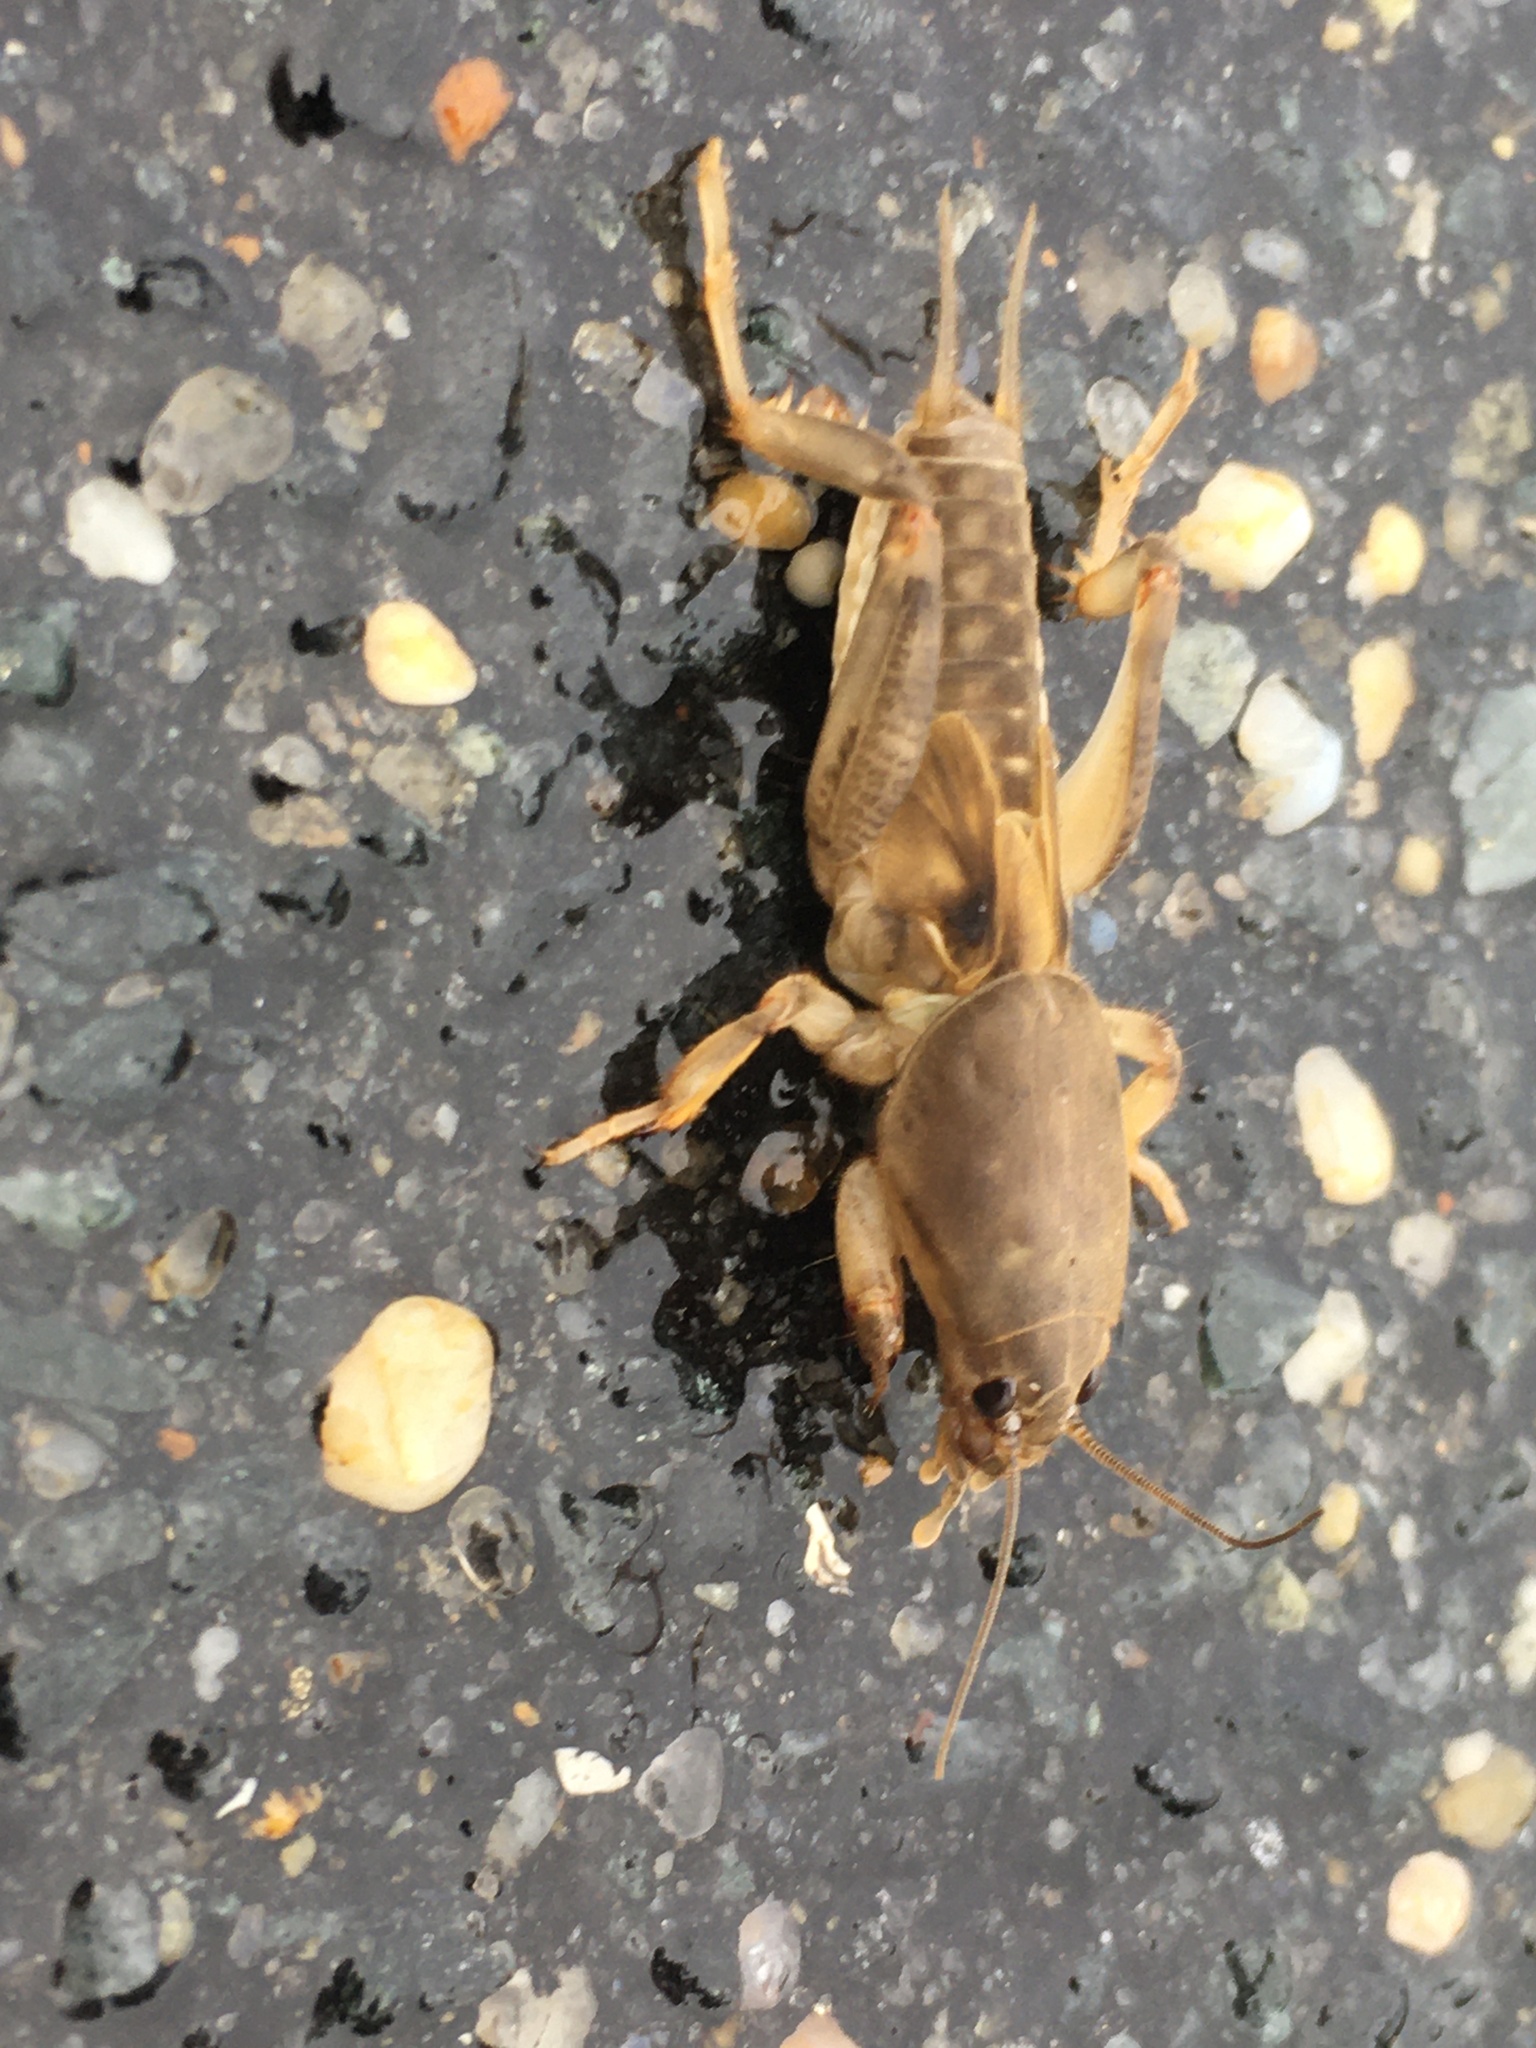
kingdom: Animalia
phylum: Arthropoda
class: Insecta
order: Orthoptera
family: Gryllotalpidae
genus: Neoscapteriscus
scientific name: Neoscapteriscus borellii
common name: Southern mole cricket
